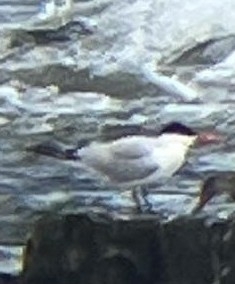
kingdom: Animalia
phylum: Chordata
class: Aves
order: Charadriiformes
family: Laridae
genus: Hydroprogne
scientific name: Hydroprogne caspia
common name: Caspian tern
